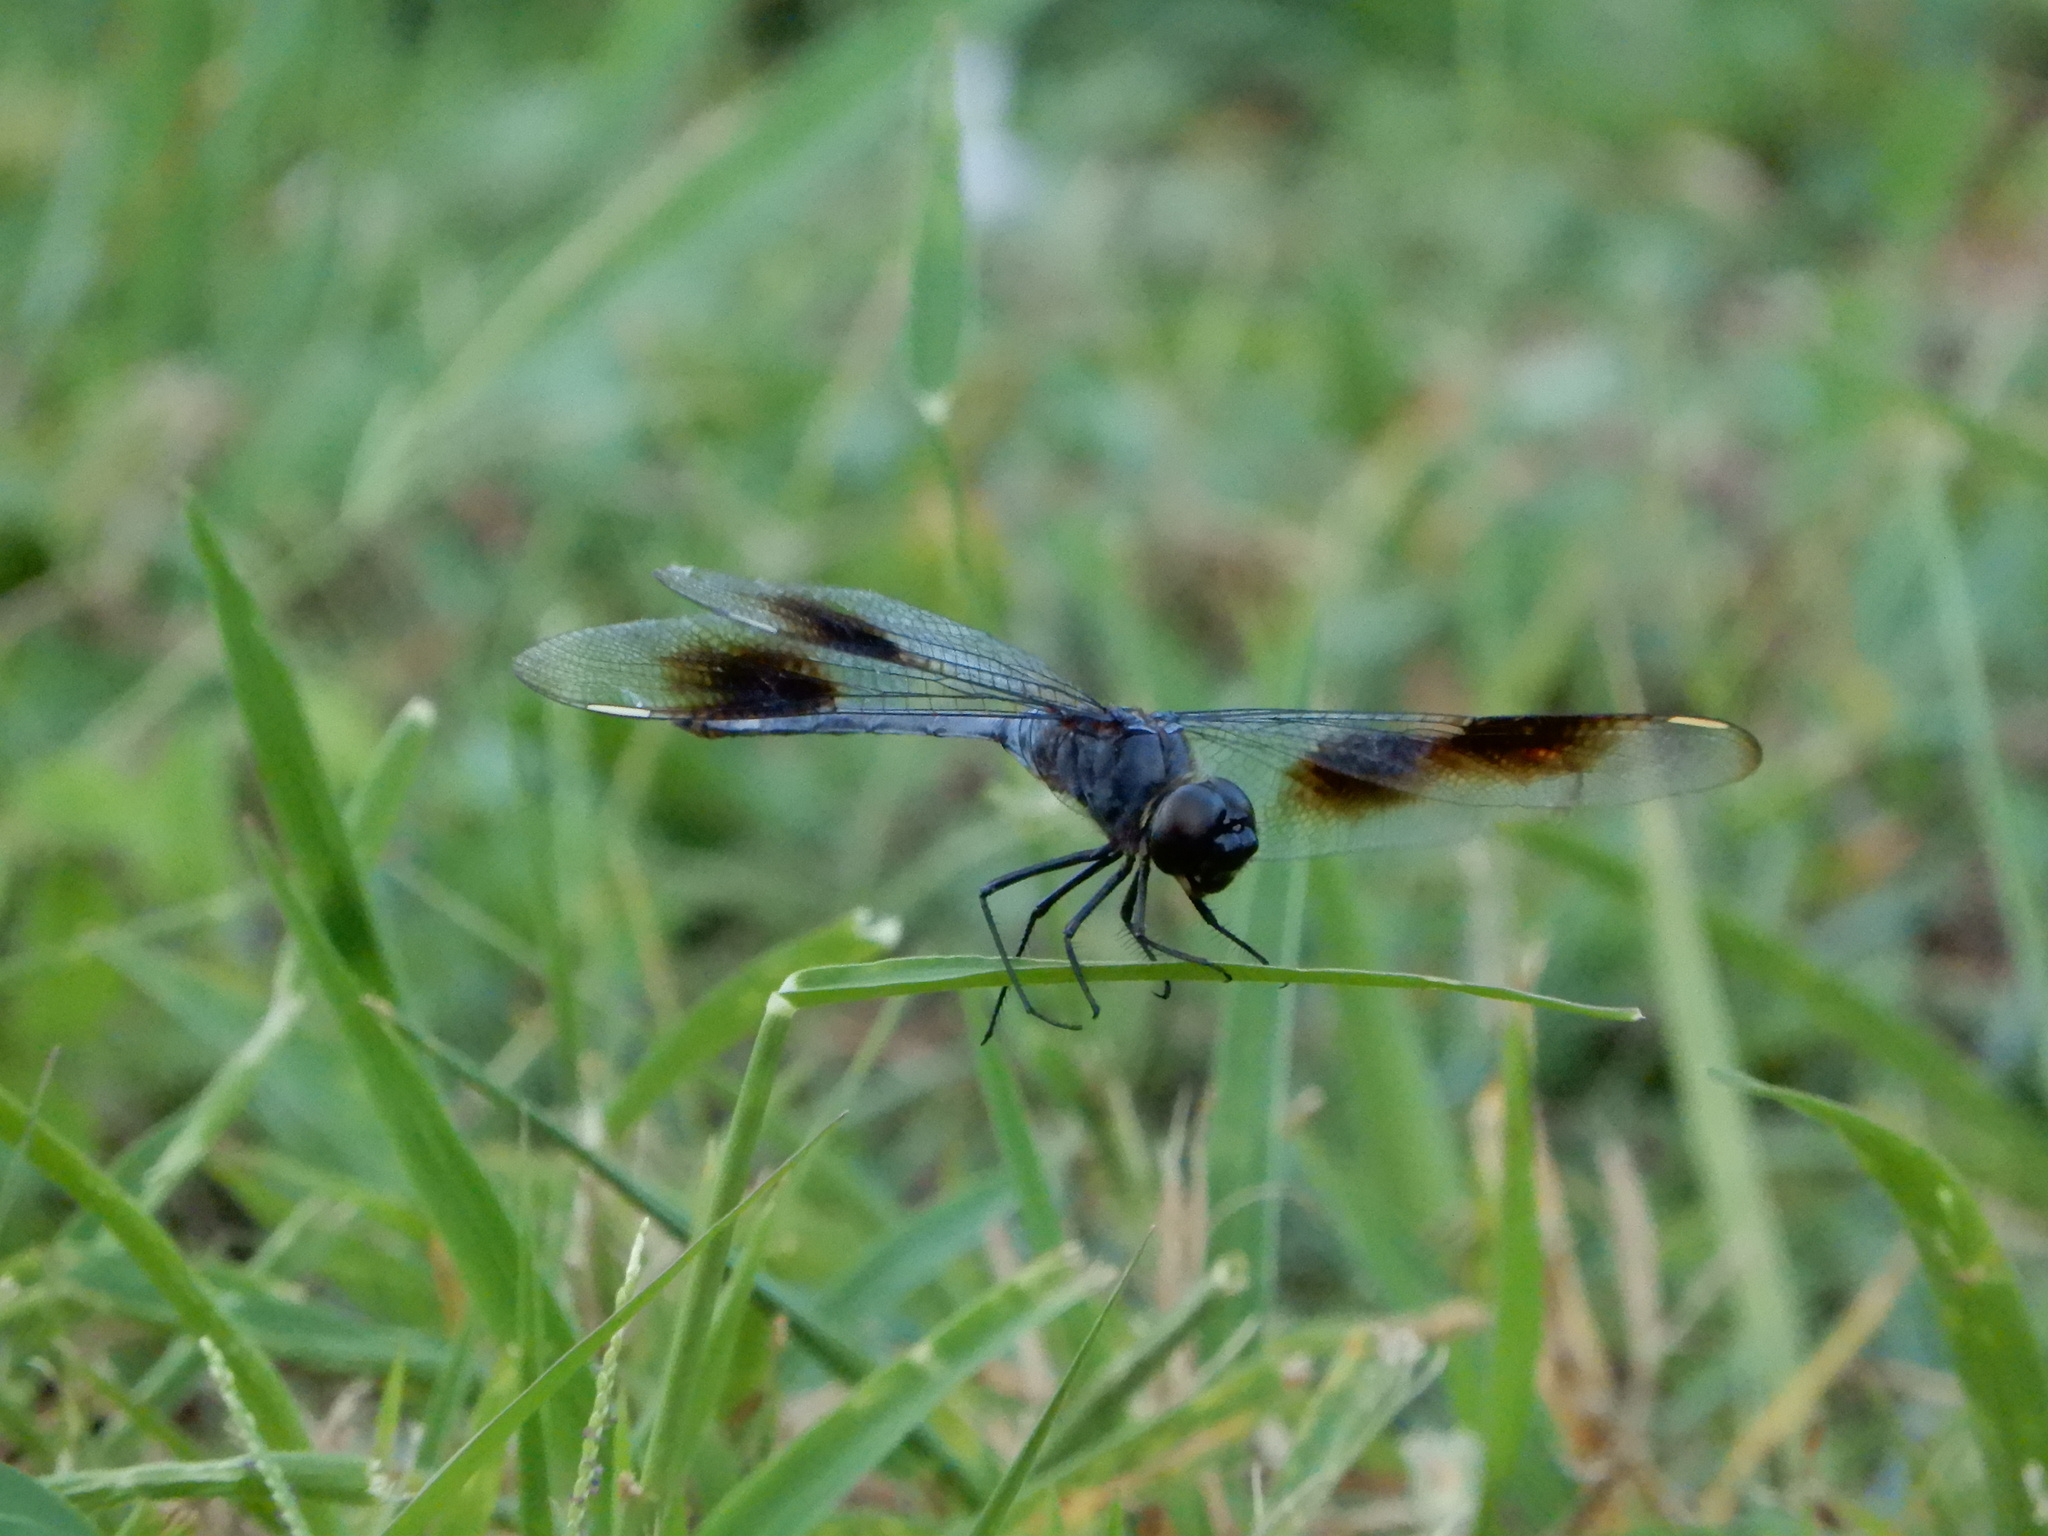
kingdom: Animalia
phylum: Arthropoda
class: Insecta
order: Odonata
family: Libellulidae
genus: Brachymesia
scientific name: Brachymesia gravida
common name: Four-spotted pennant
